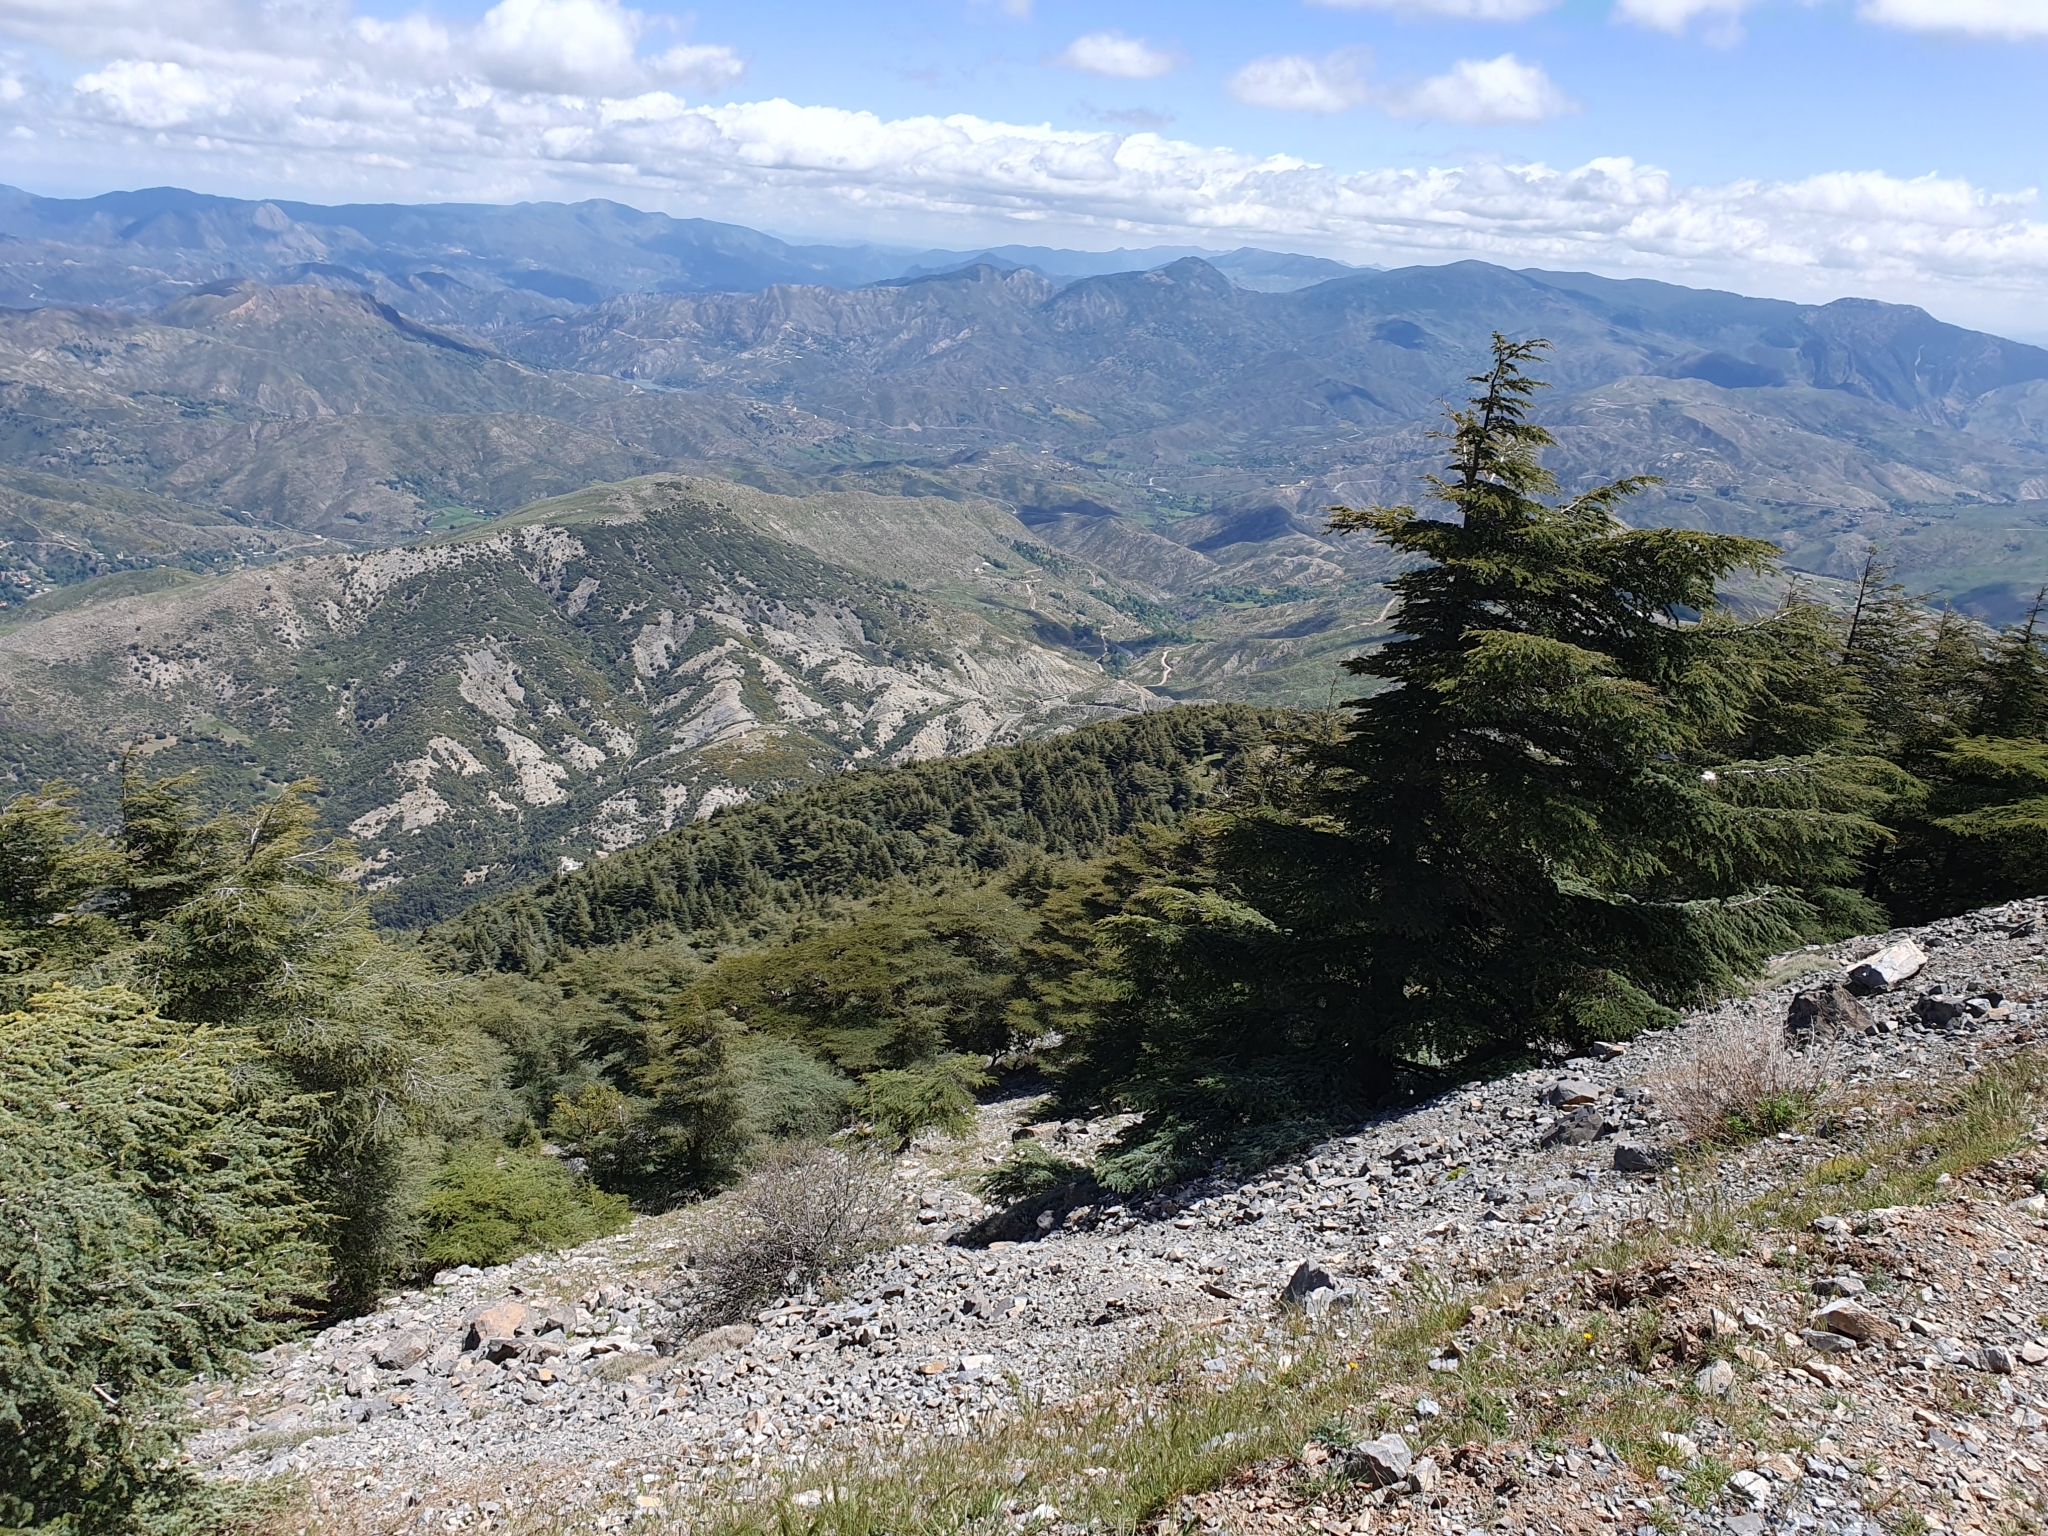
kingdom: Plantae
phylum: Tracheophyta
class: Pinopsida
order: Pinales
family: Pinaceae
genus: Cedrus
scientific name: Cedrus atlantica
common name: Atlas cedar
